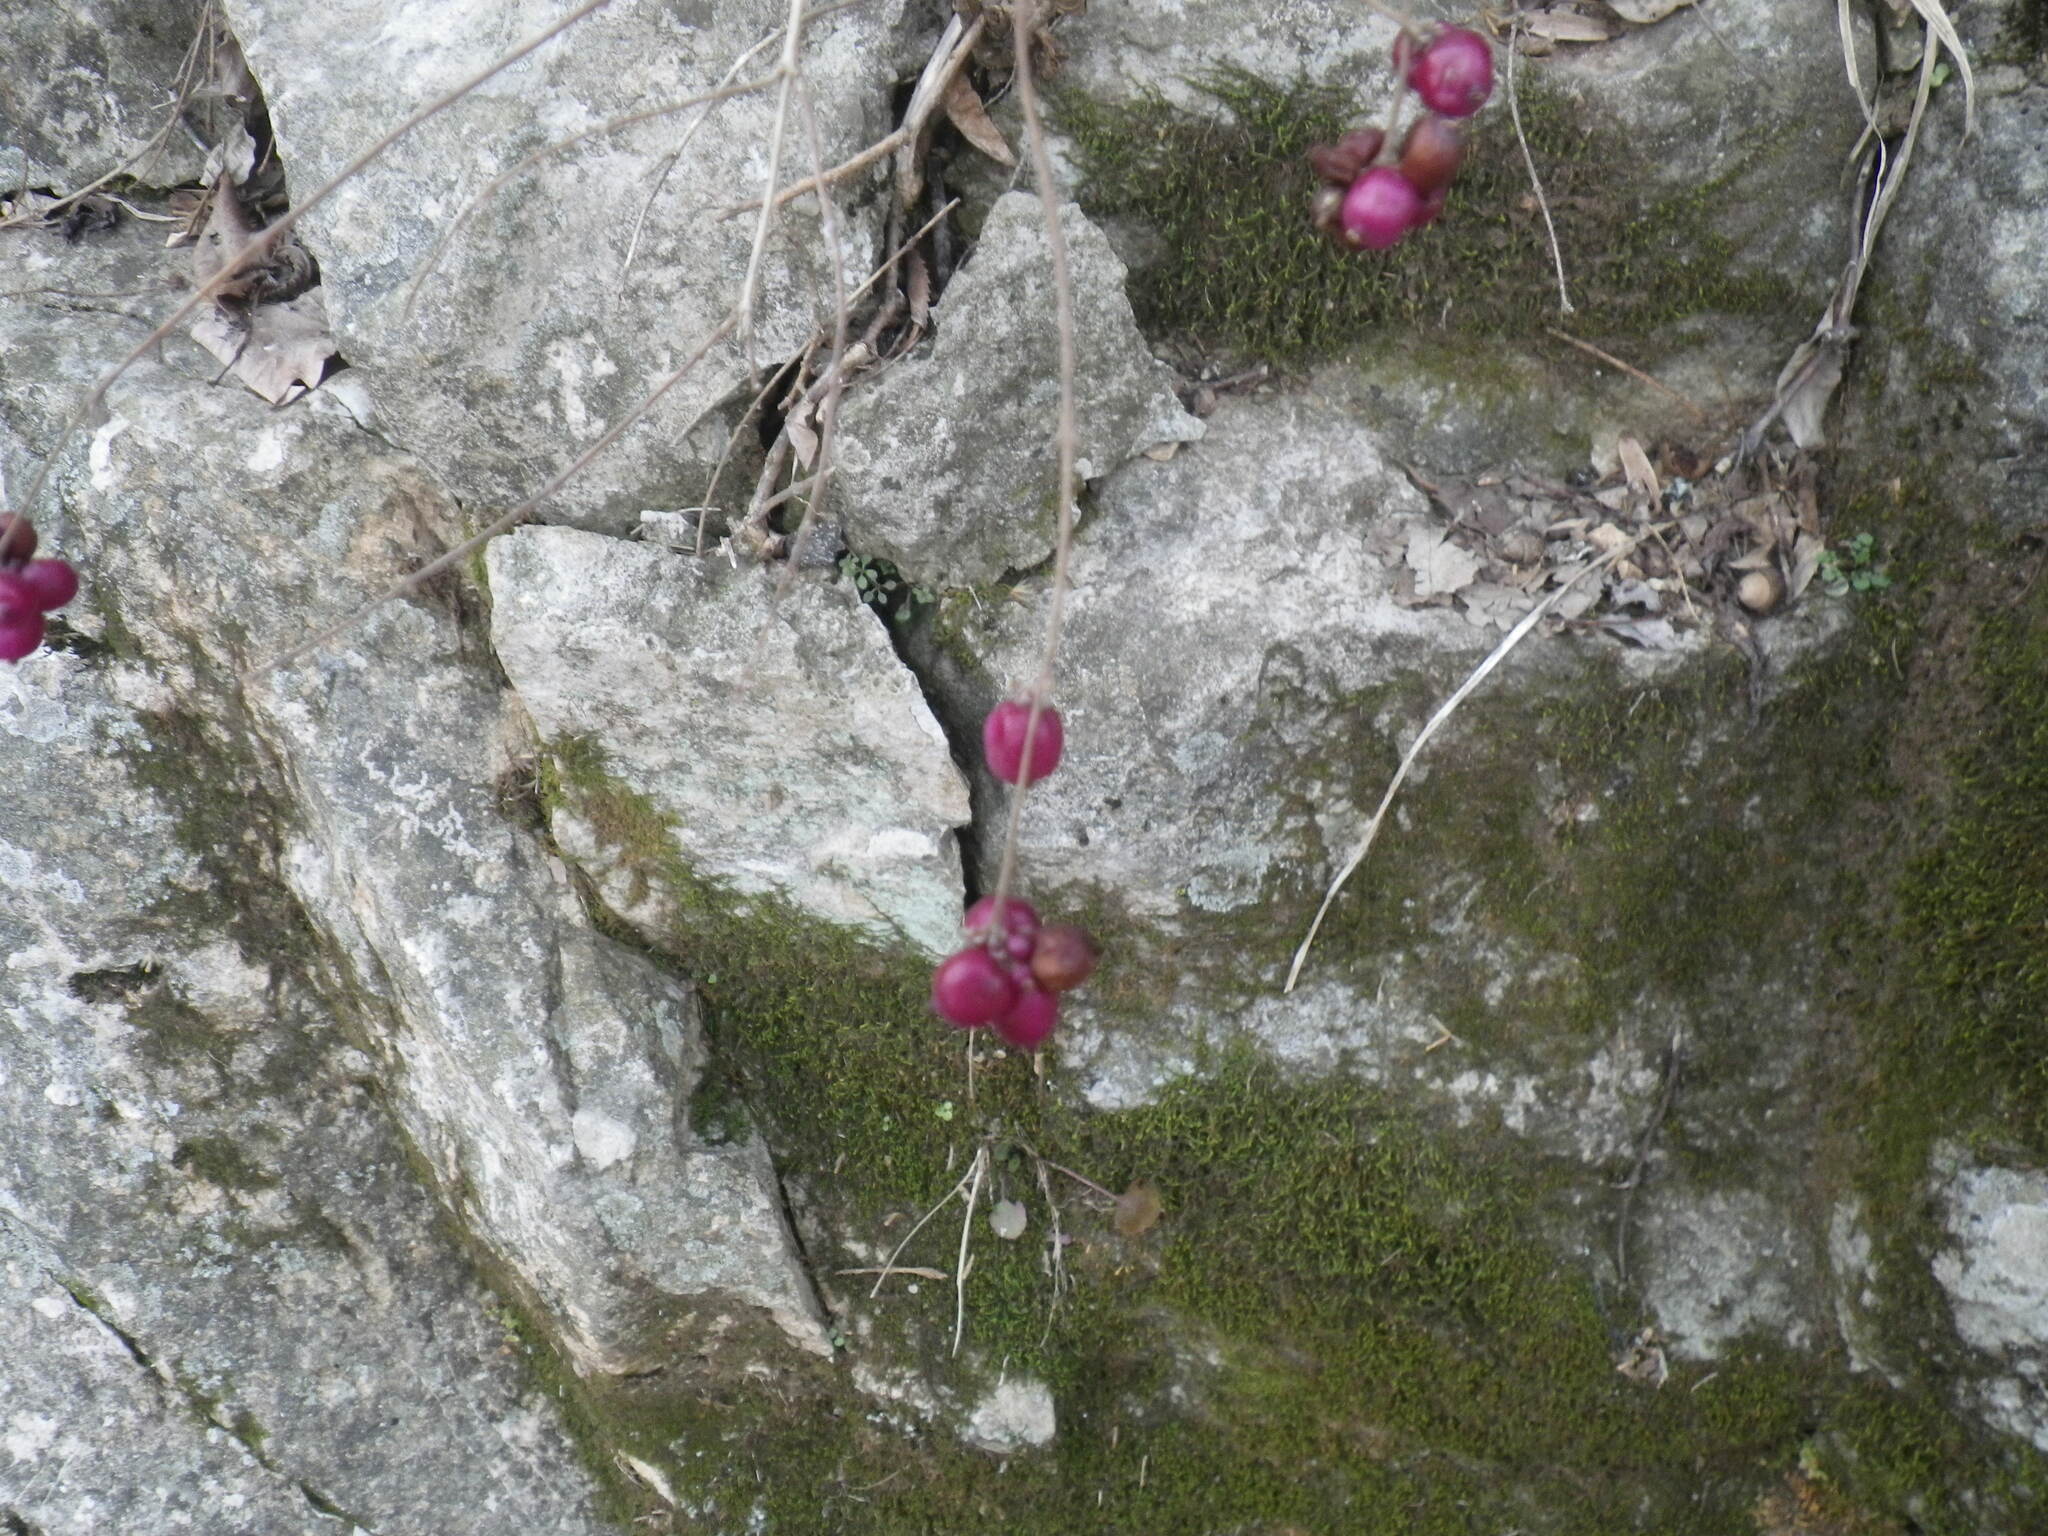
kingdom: Plantae
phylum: Tracheophyta
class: Magnoliopsida
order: Dipsacales
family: Caprifoliaceae
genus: Symphoricarpos
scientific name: Symphoricarpos orbiculatus
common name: Coralberry
